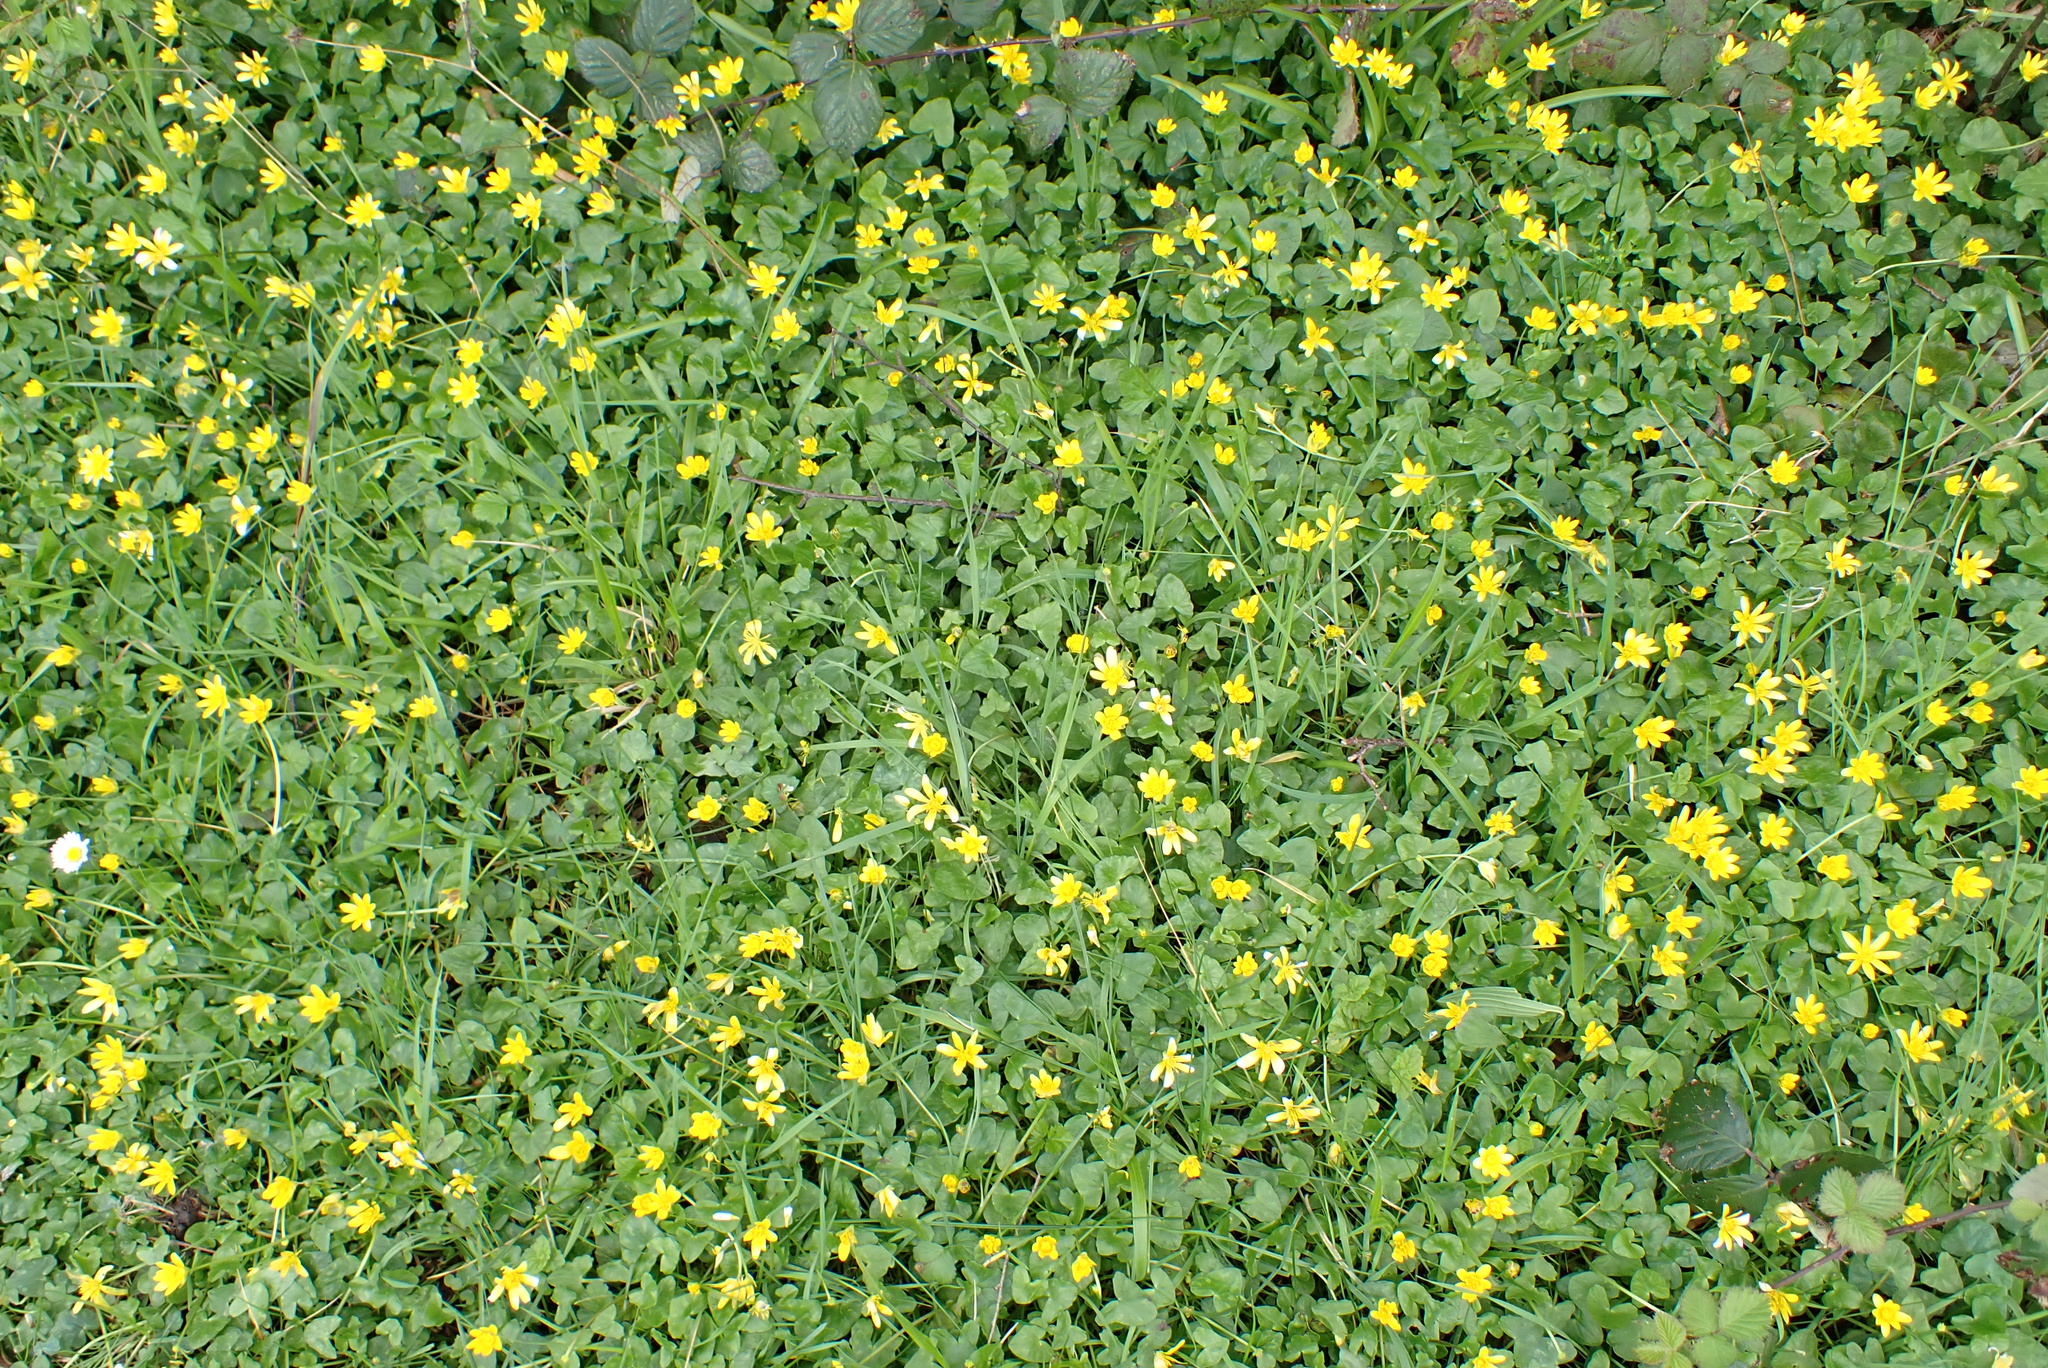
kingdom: Plantae
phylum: Tracheophyta
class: Magnoliopsida
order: Ranunculales
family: Ranunculaceae
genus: Ficaria
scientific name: Ficaria verna
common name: Lesser celandine
